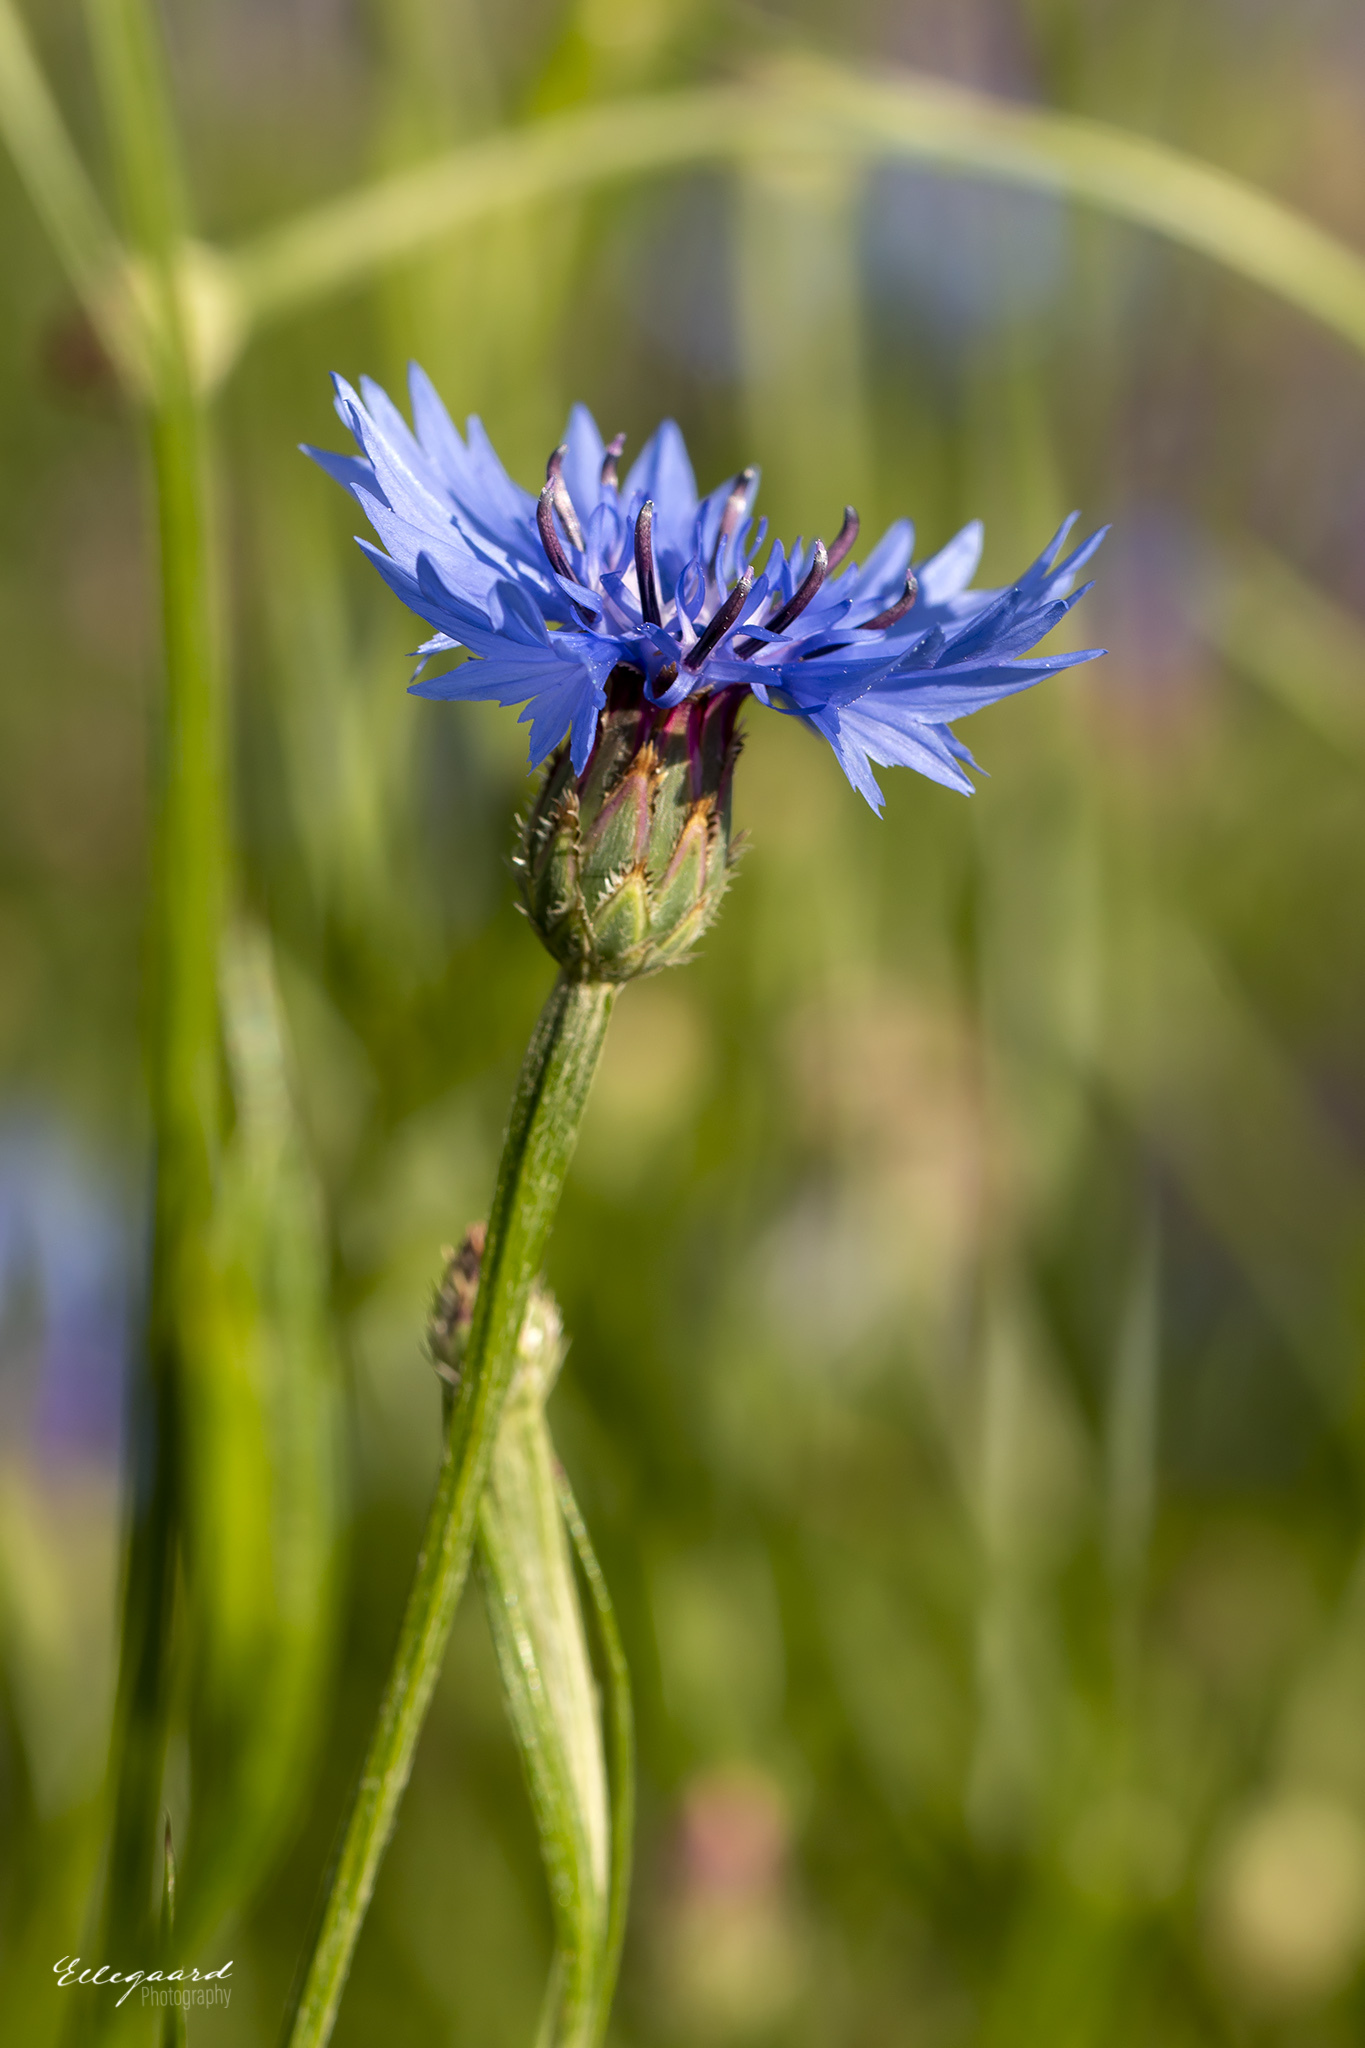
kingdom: Plantae
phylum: Tracheophyta
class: Magnoliopsida
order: Asterales
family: Asteraceae
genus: Centaurea
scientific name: Centaurea cyanus
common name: Cornflower
